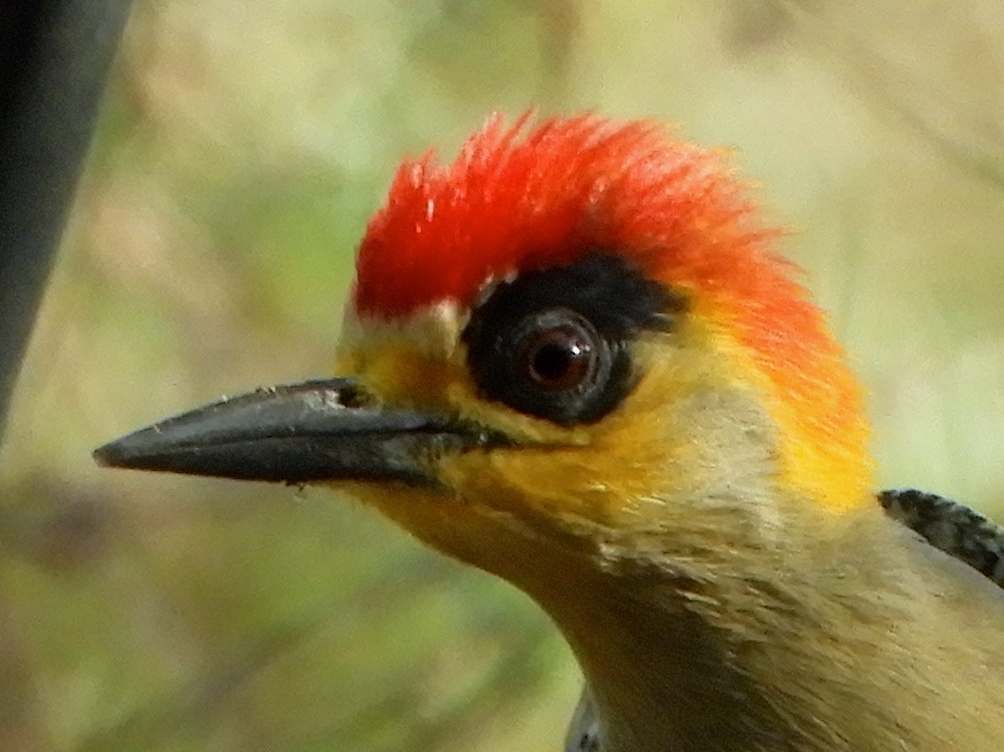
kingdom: Animalia
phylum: Chordata
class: Aves
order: Piciformes
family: Picidae
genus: Melanerpes
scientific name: Melanerpes chrysogenys
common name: Golden-cheeked woodpecker
